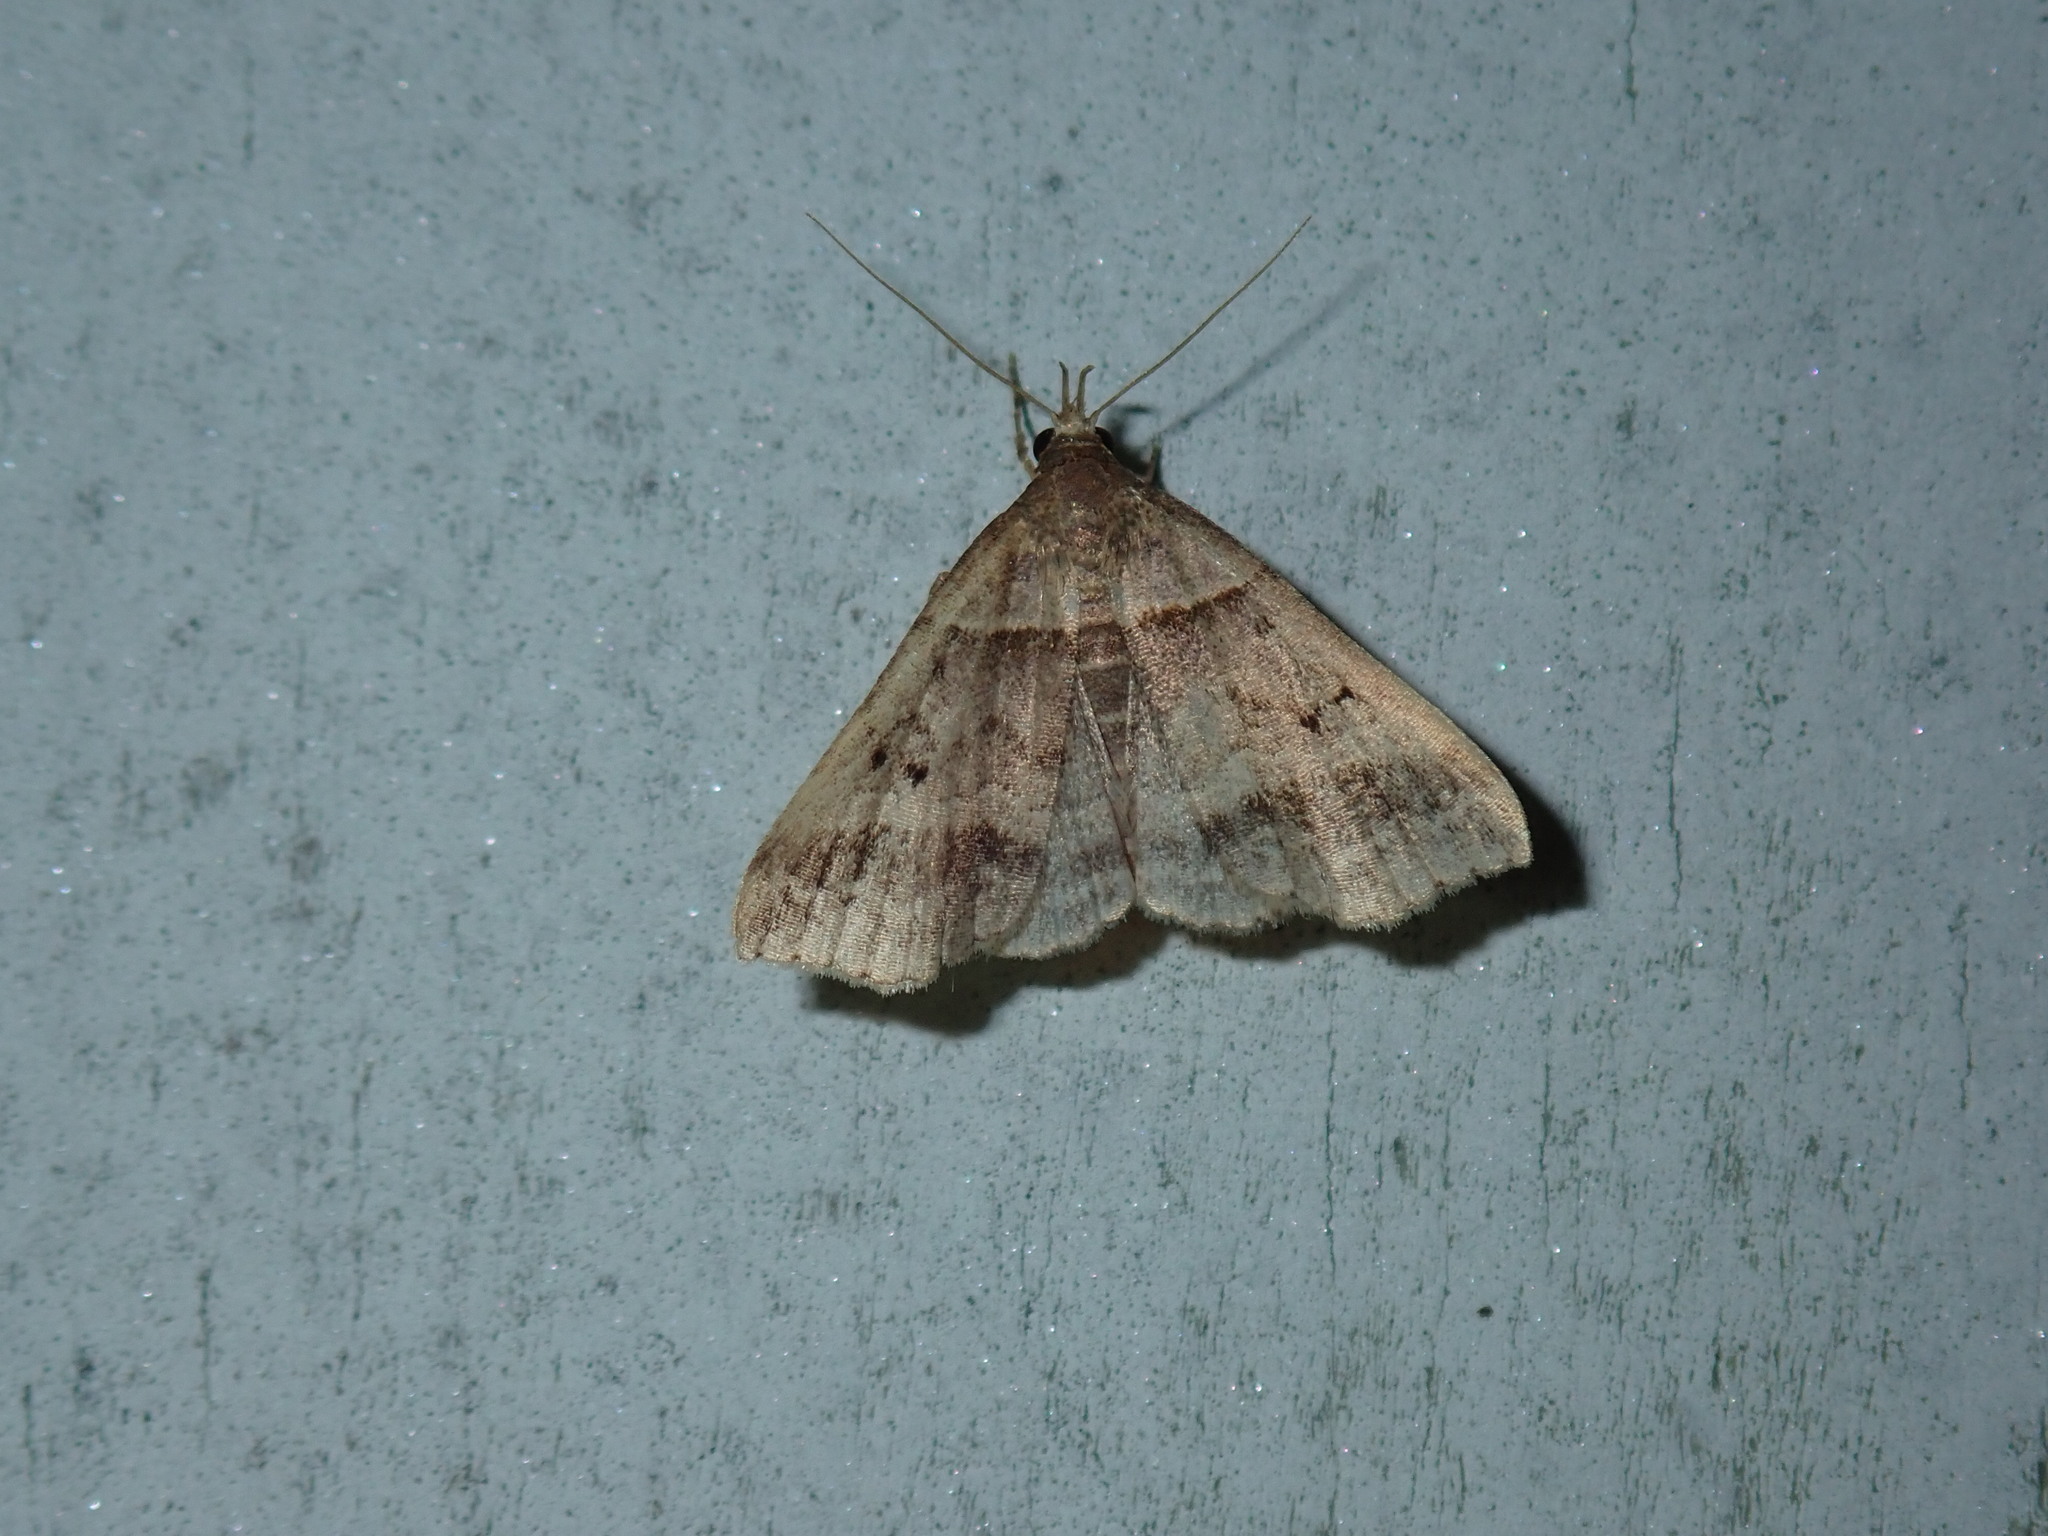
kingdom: Animalia
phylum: Arthropoda
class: Insecta
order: Lepidoptera
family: Erebidae
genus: Phaeolita
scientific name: Phaeolita pyramusalis
